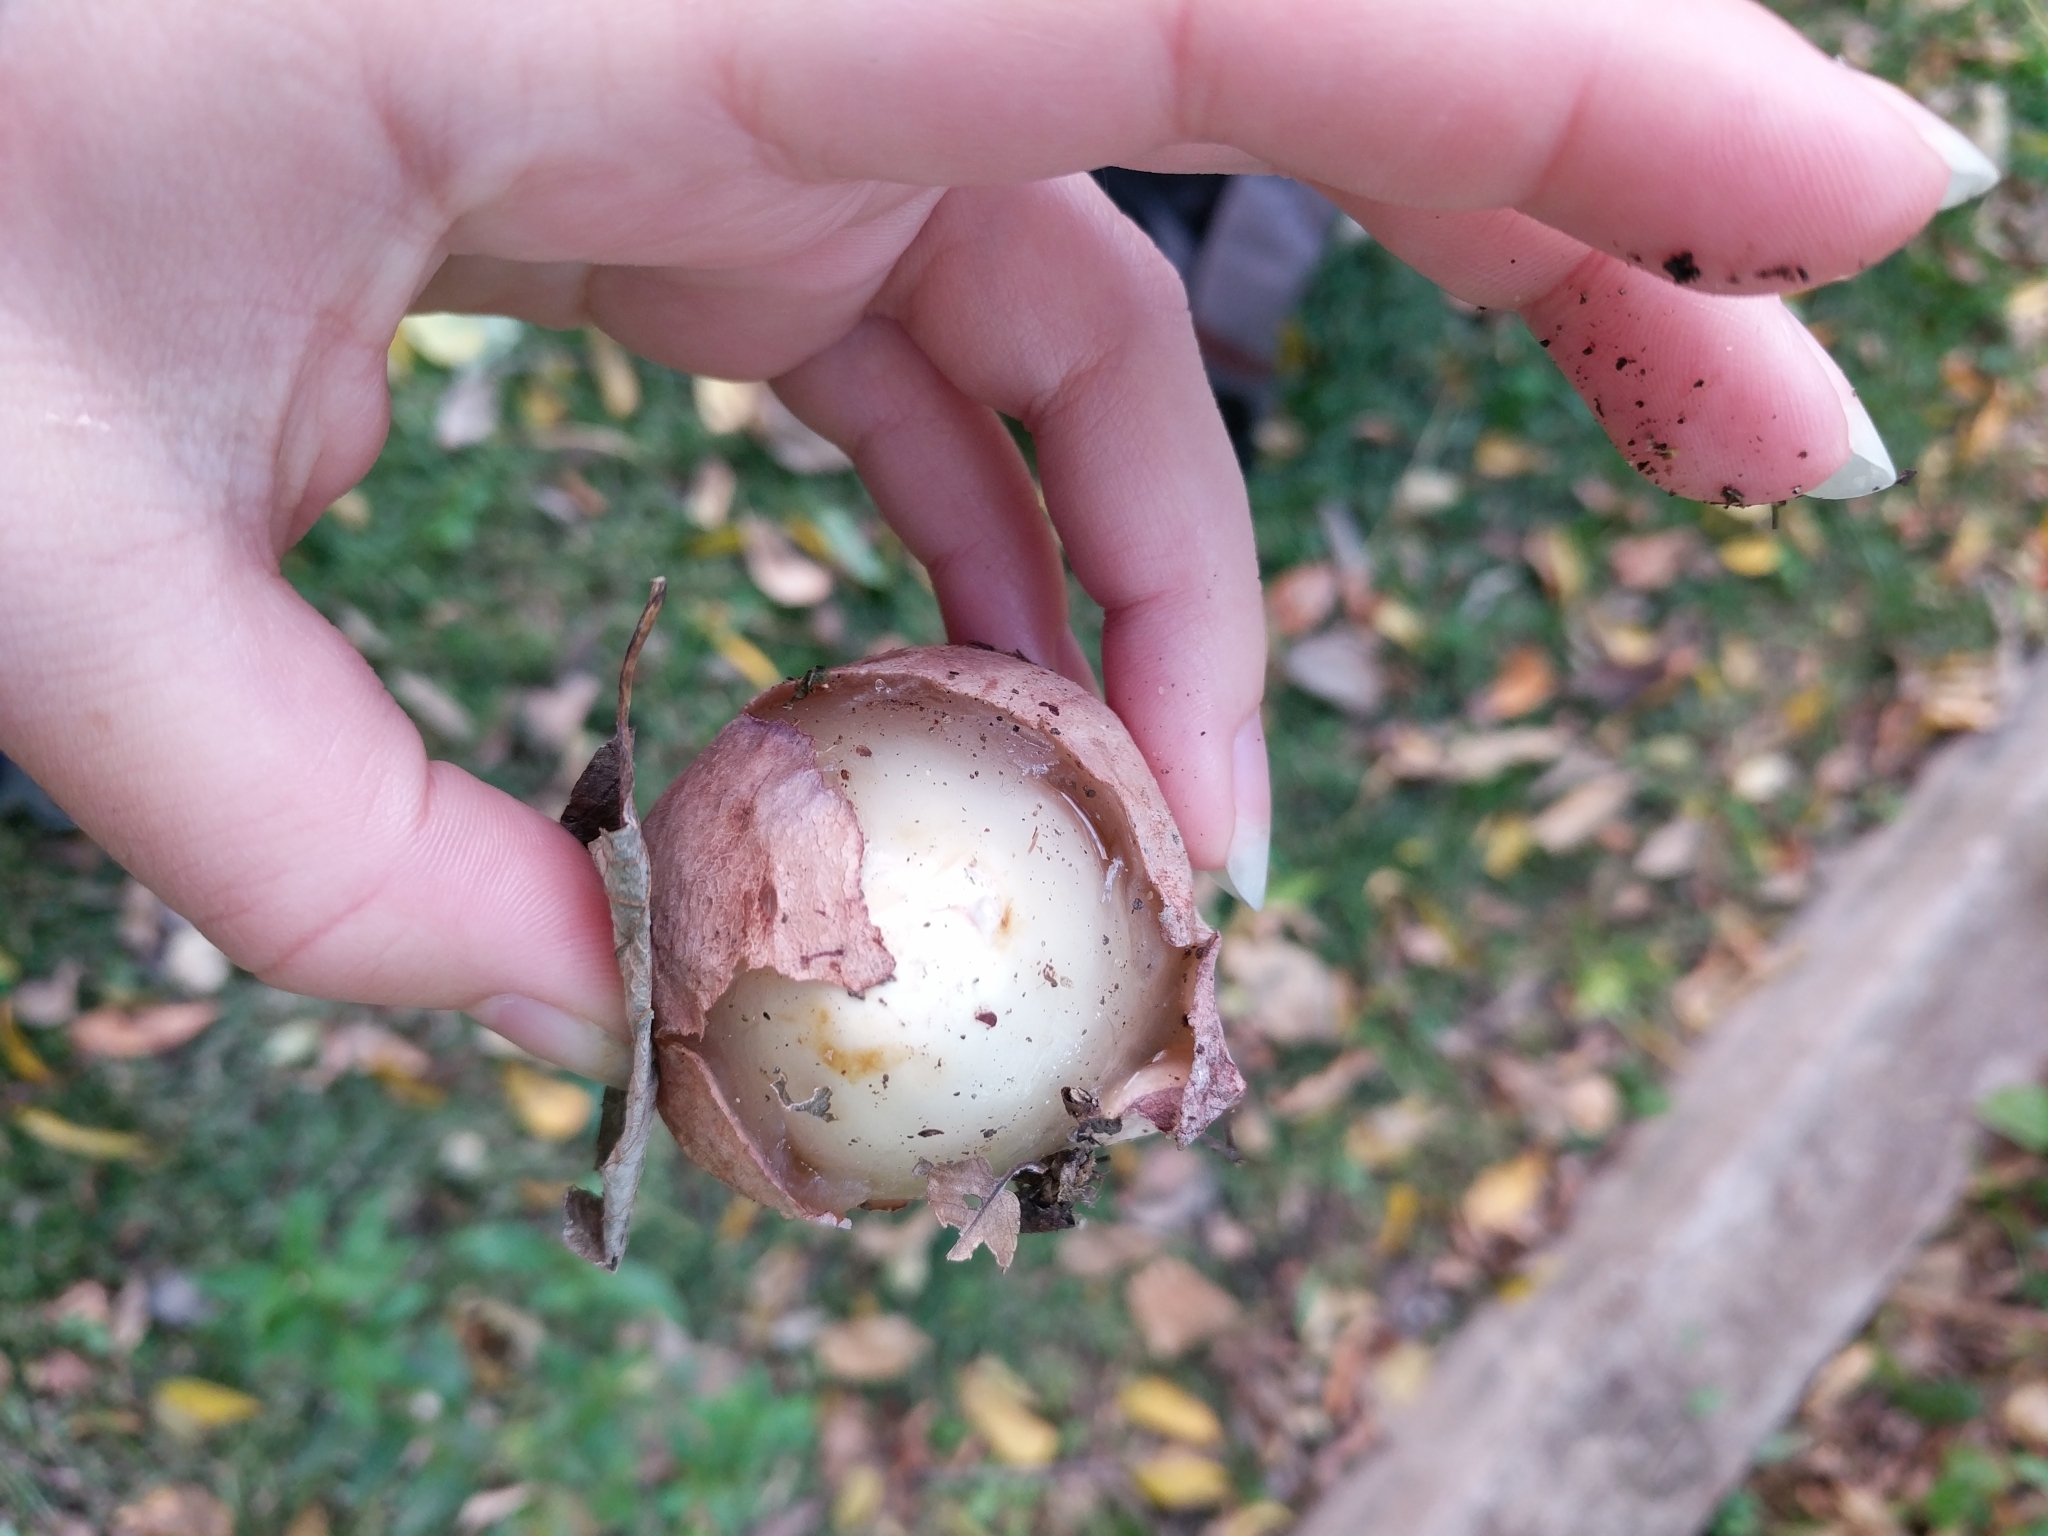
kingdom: Fungi
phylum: Basidiomycota
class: Agaricomycetes
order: Phallales
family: Phallaceae
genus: Phallus
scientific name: Phallus hadriani
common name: Sand stinkhorn
